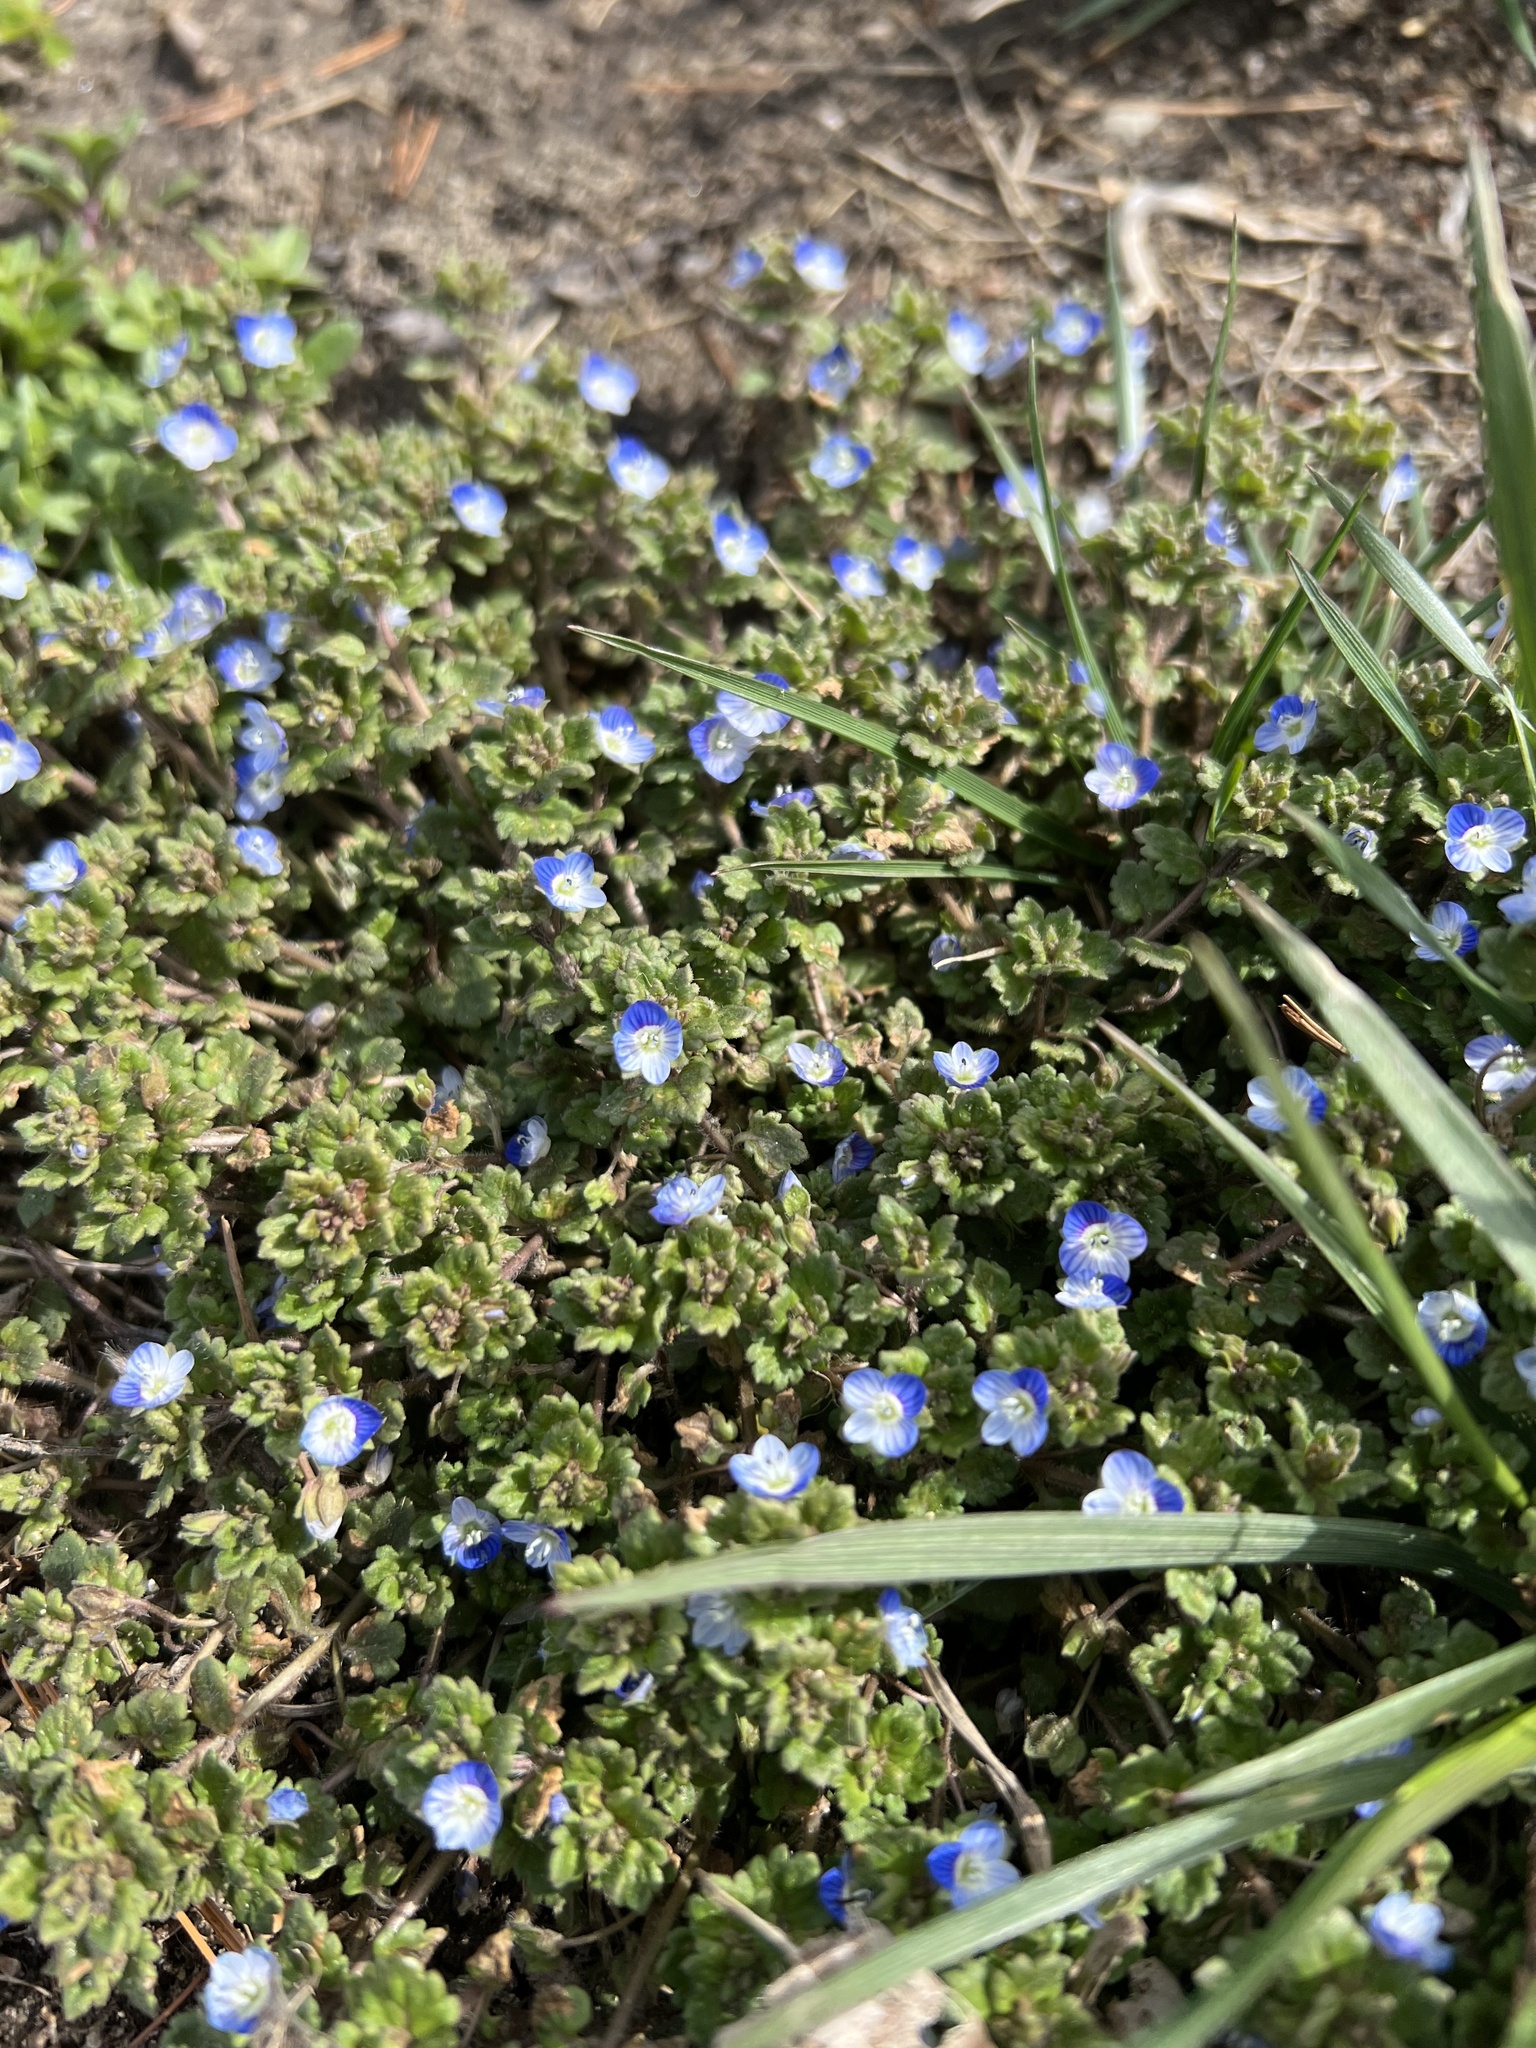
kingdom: Plantae
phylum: Tracheophyta
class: Magnoliopsida
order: Lamiales
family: Plantaginaceae
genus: Veronica
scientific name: Veronica polita
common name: Grey field-speedwell
